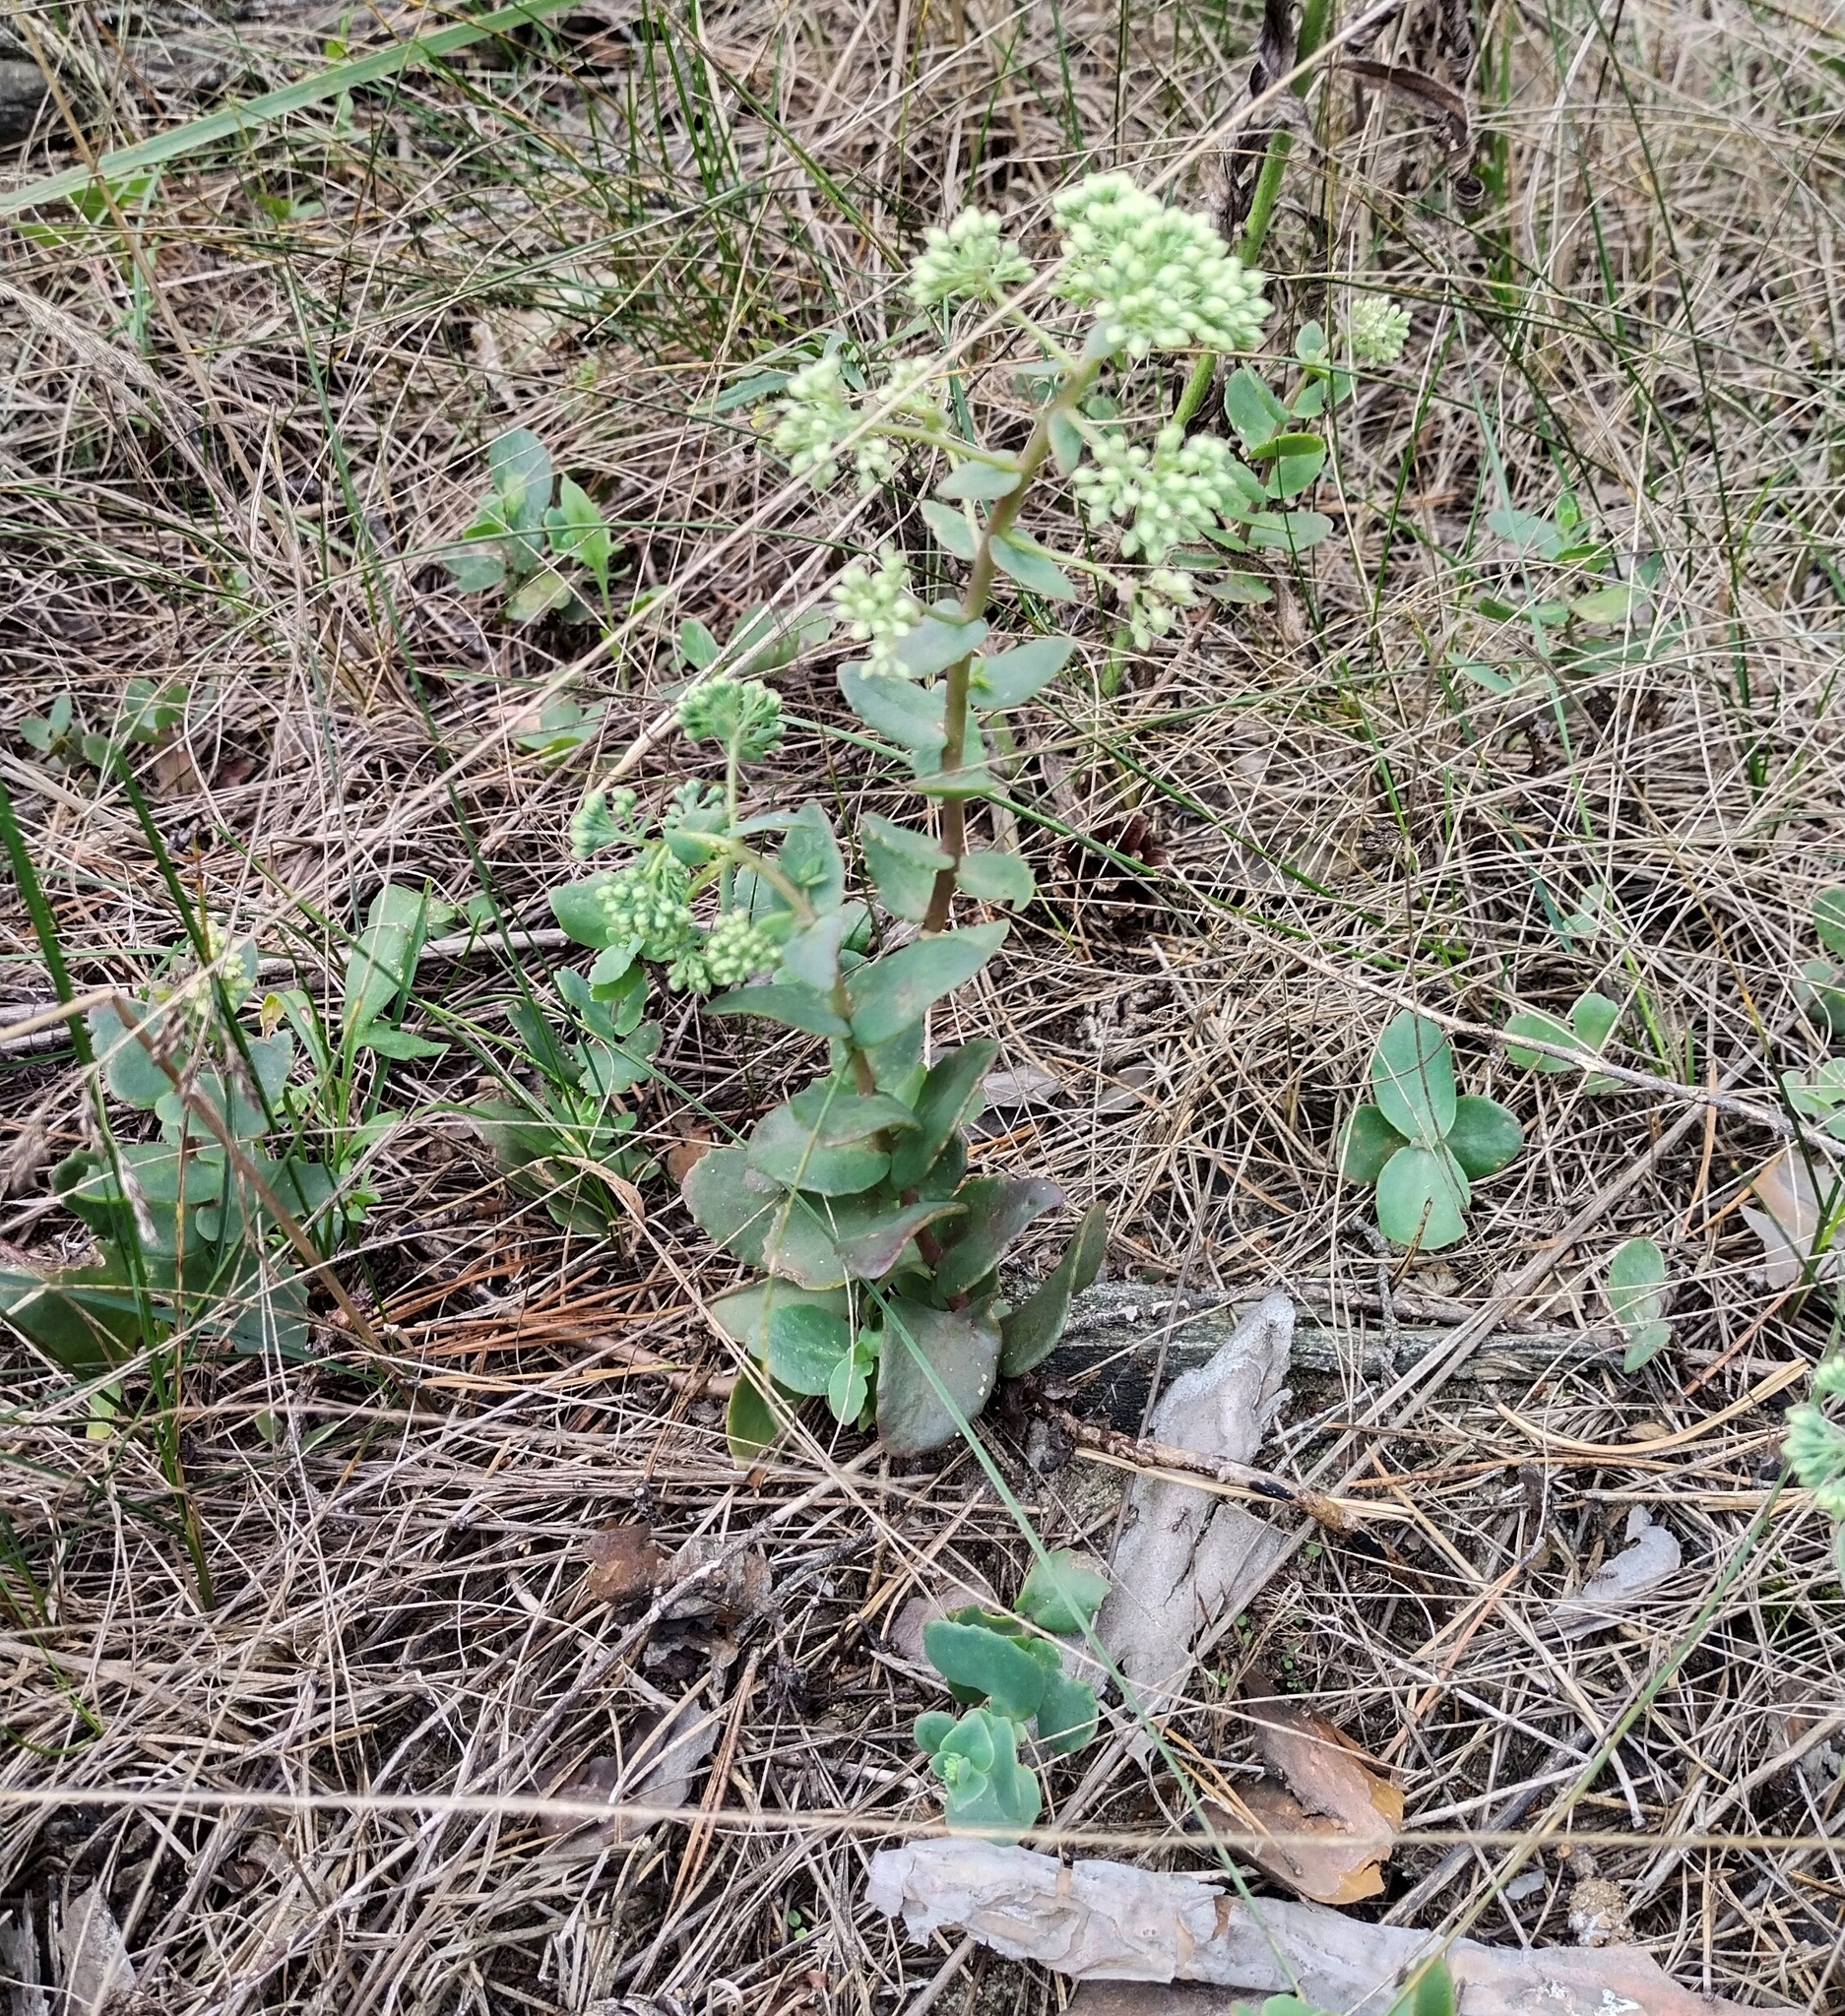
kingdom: Plantae
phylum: Tracheophyta
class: Magnoliopsida
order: Saxifragales
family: Crassulaceae
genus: Hylotelephium
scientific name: Hylotelephium maximum
